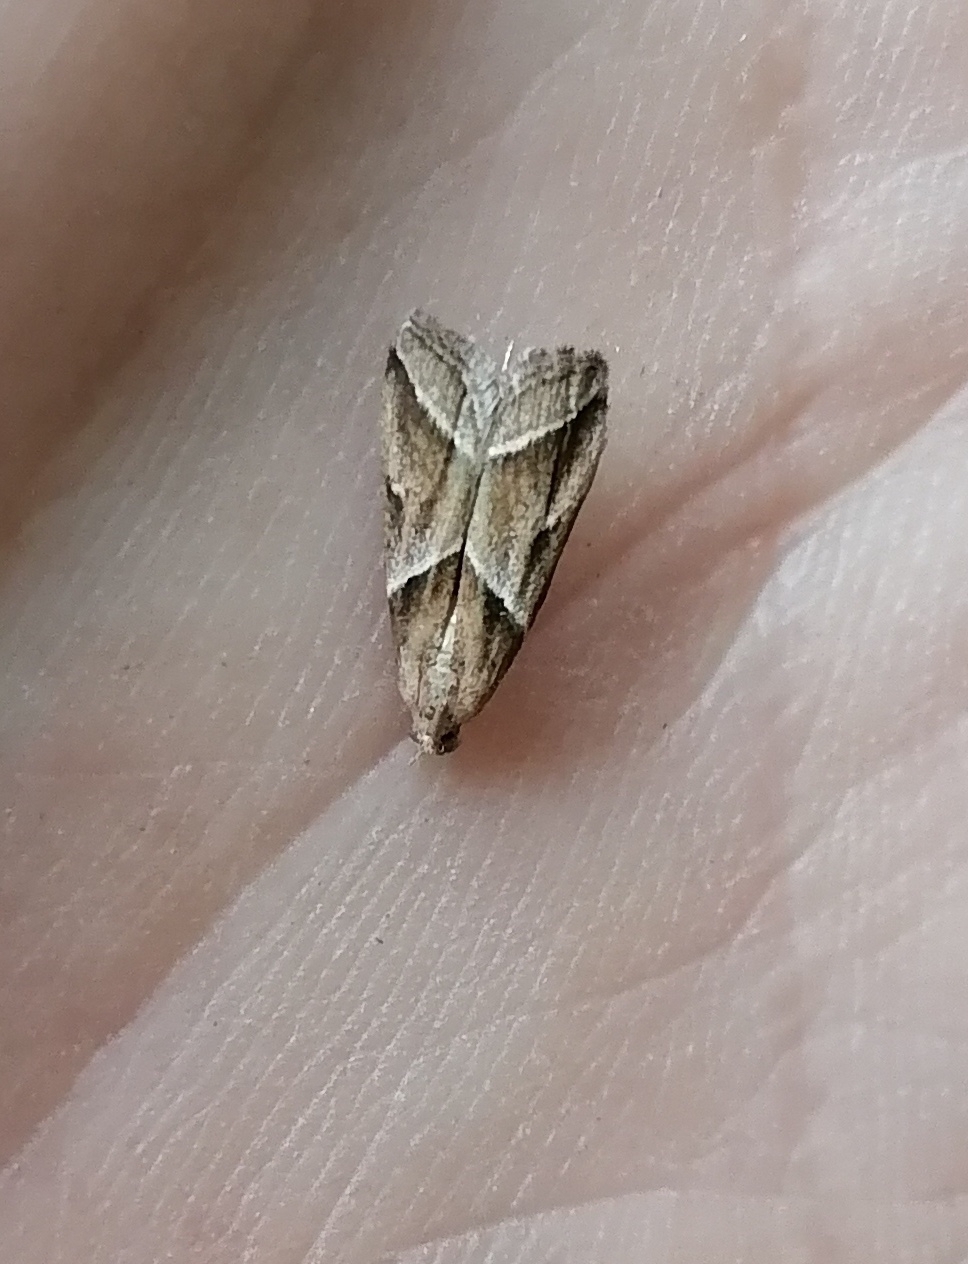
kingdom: Animalia
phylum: Arthropoda
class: Insecta
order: Lepidoptera
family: Pyralidae
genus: Nyctegretis
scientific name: Nyctegretis lineana
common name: Agate knot-horn
